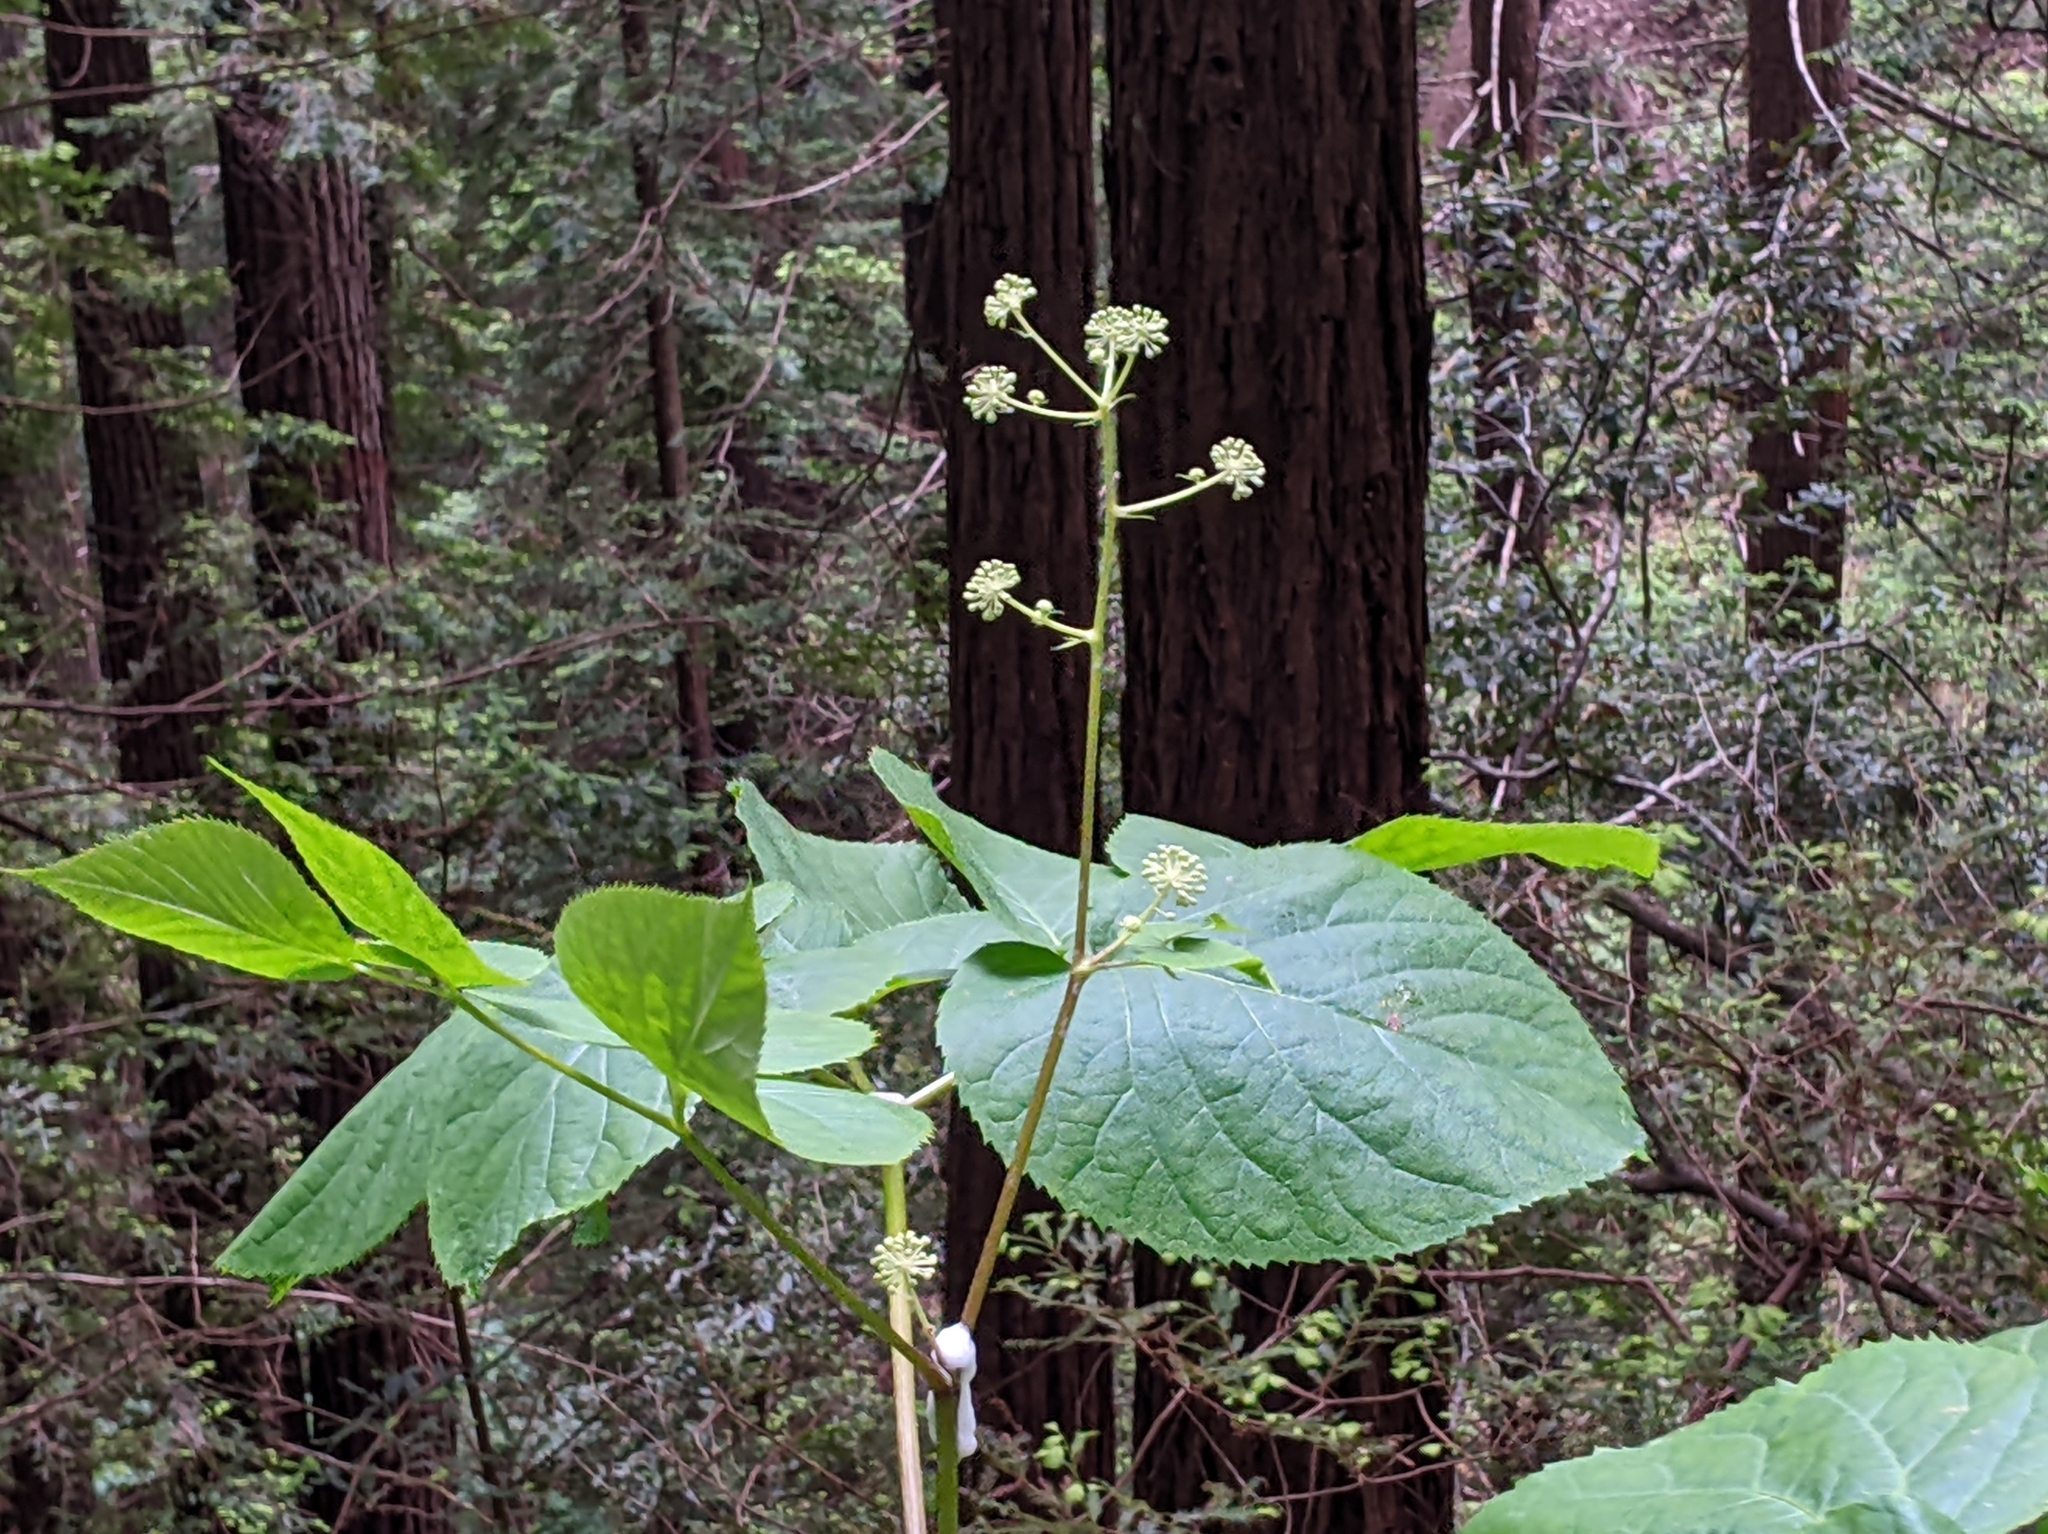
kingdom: Plantae
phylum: Tracheophyta
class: Magnoliopsida
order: Apiales
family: Araliaceae
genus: Aralia
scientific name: Aralia californica
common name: California-ginseng
